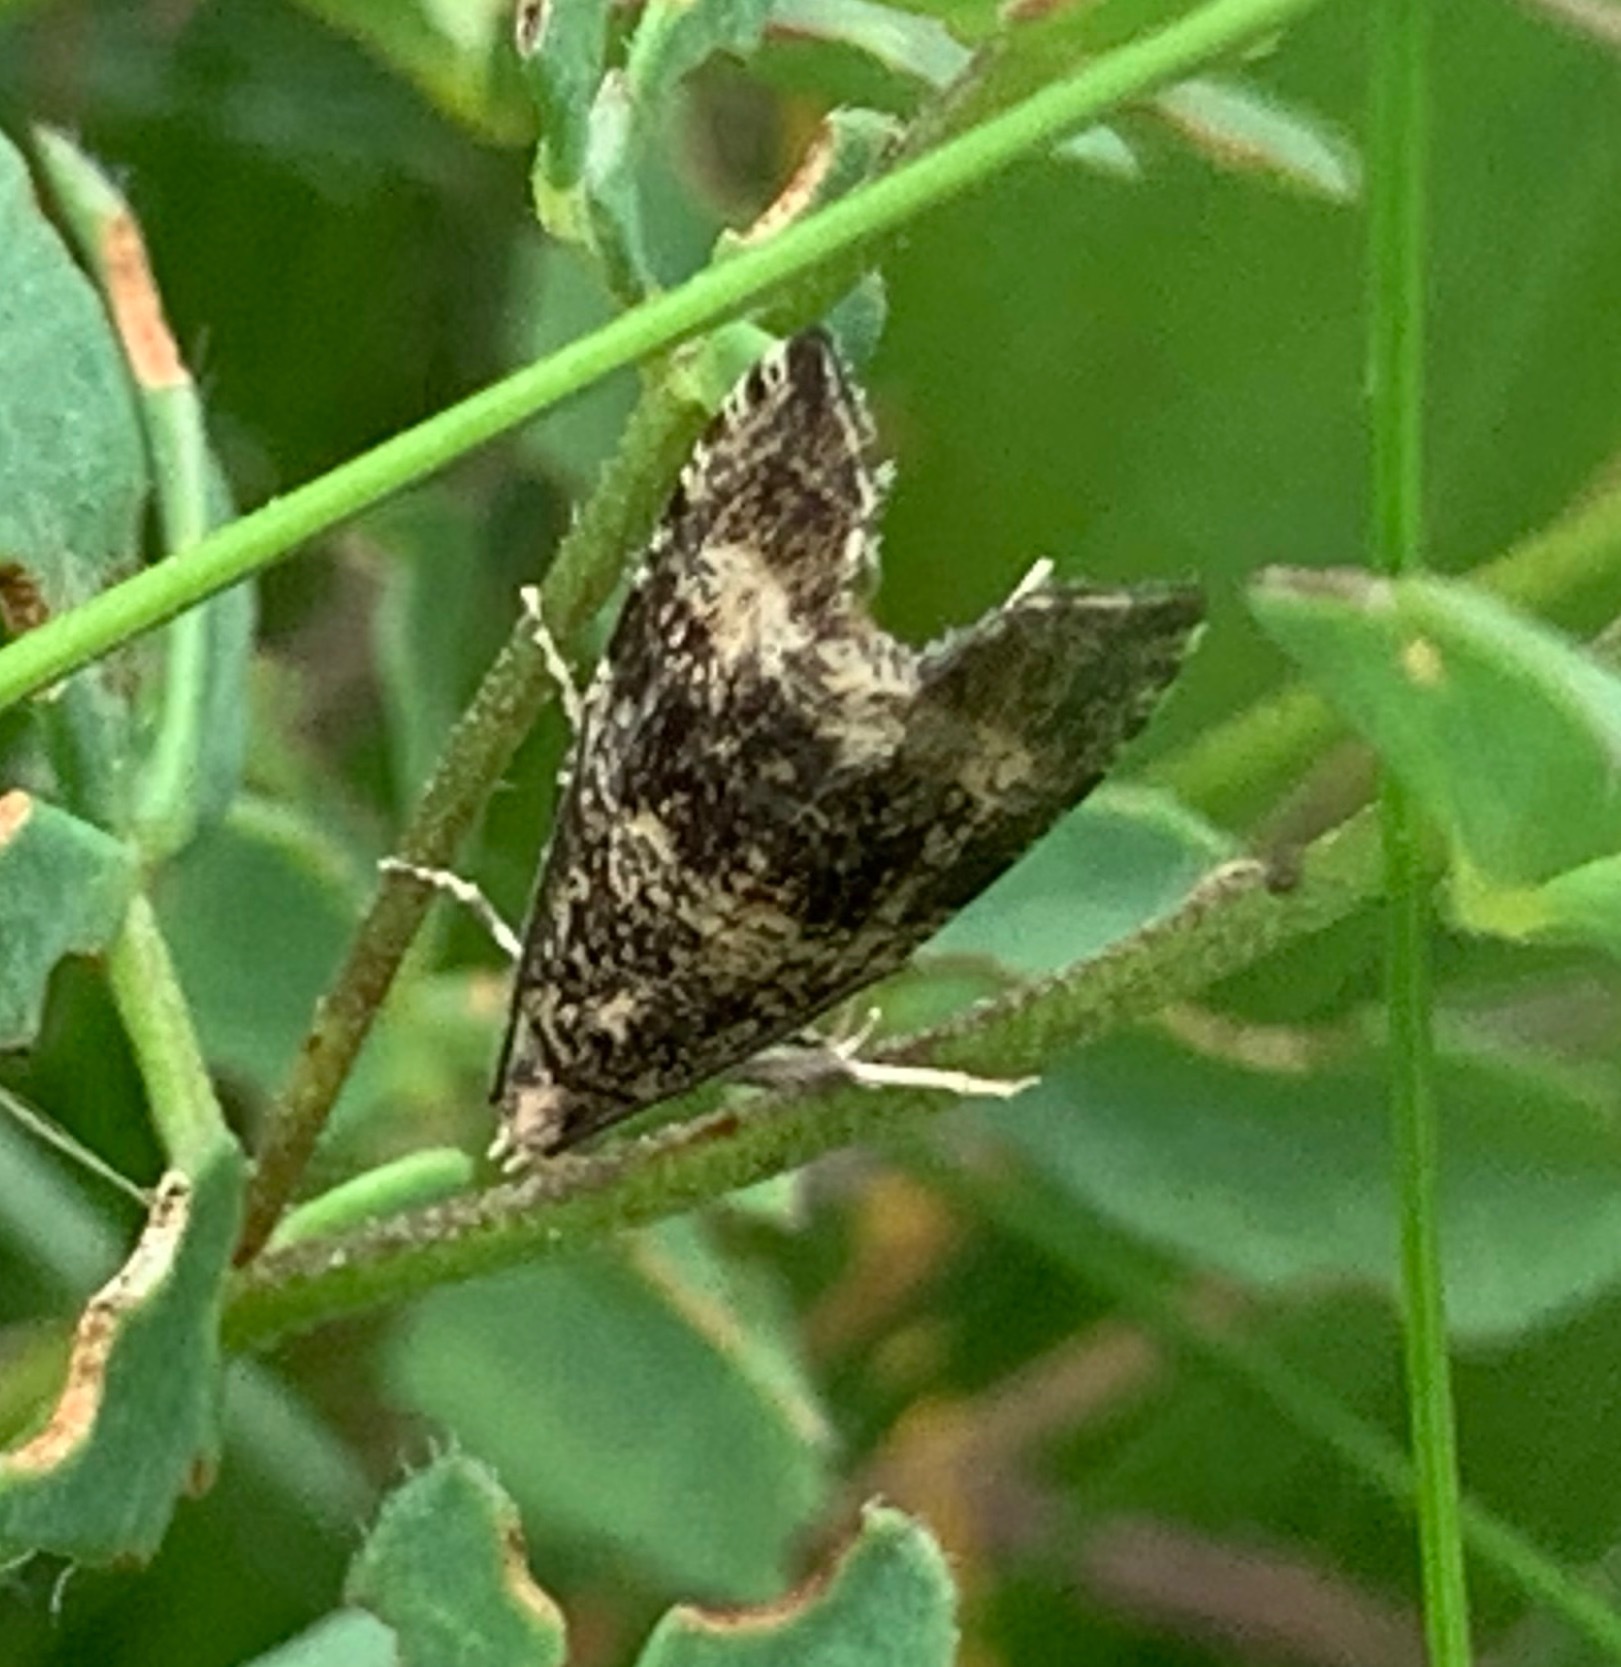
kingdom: Animalia
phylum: Arthropoda
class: Insecta
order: Lepidoptera
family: Tortricidae
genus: Syricoris
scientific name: Syricoris lacunana
